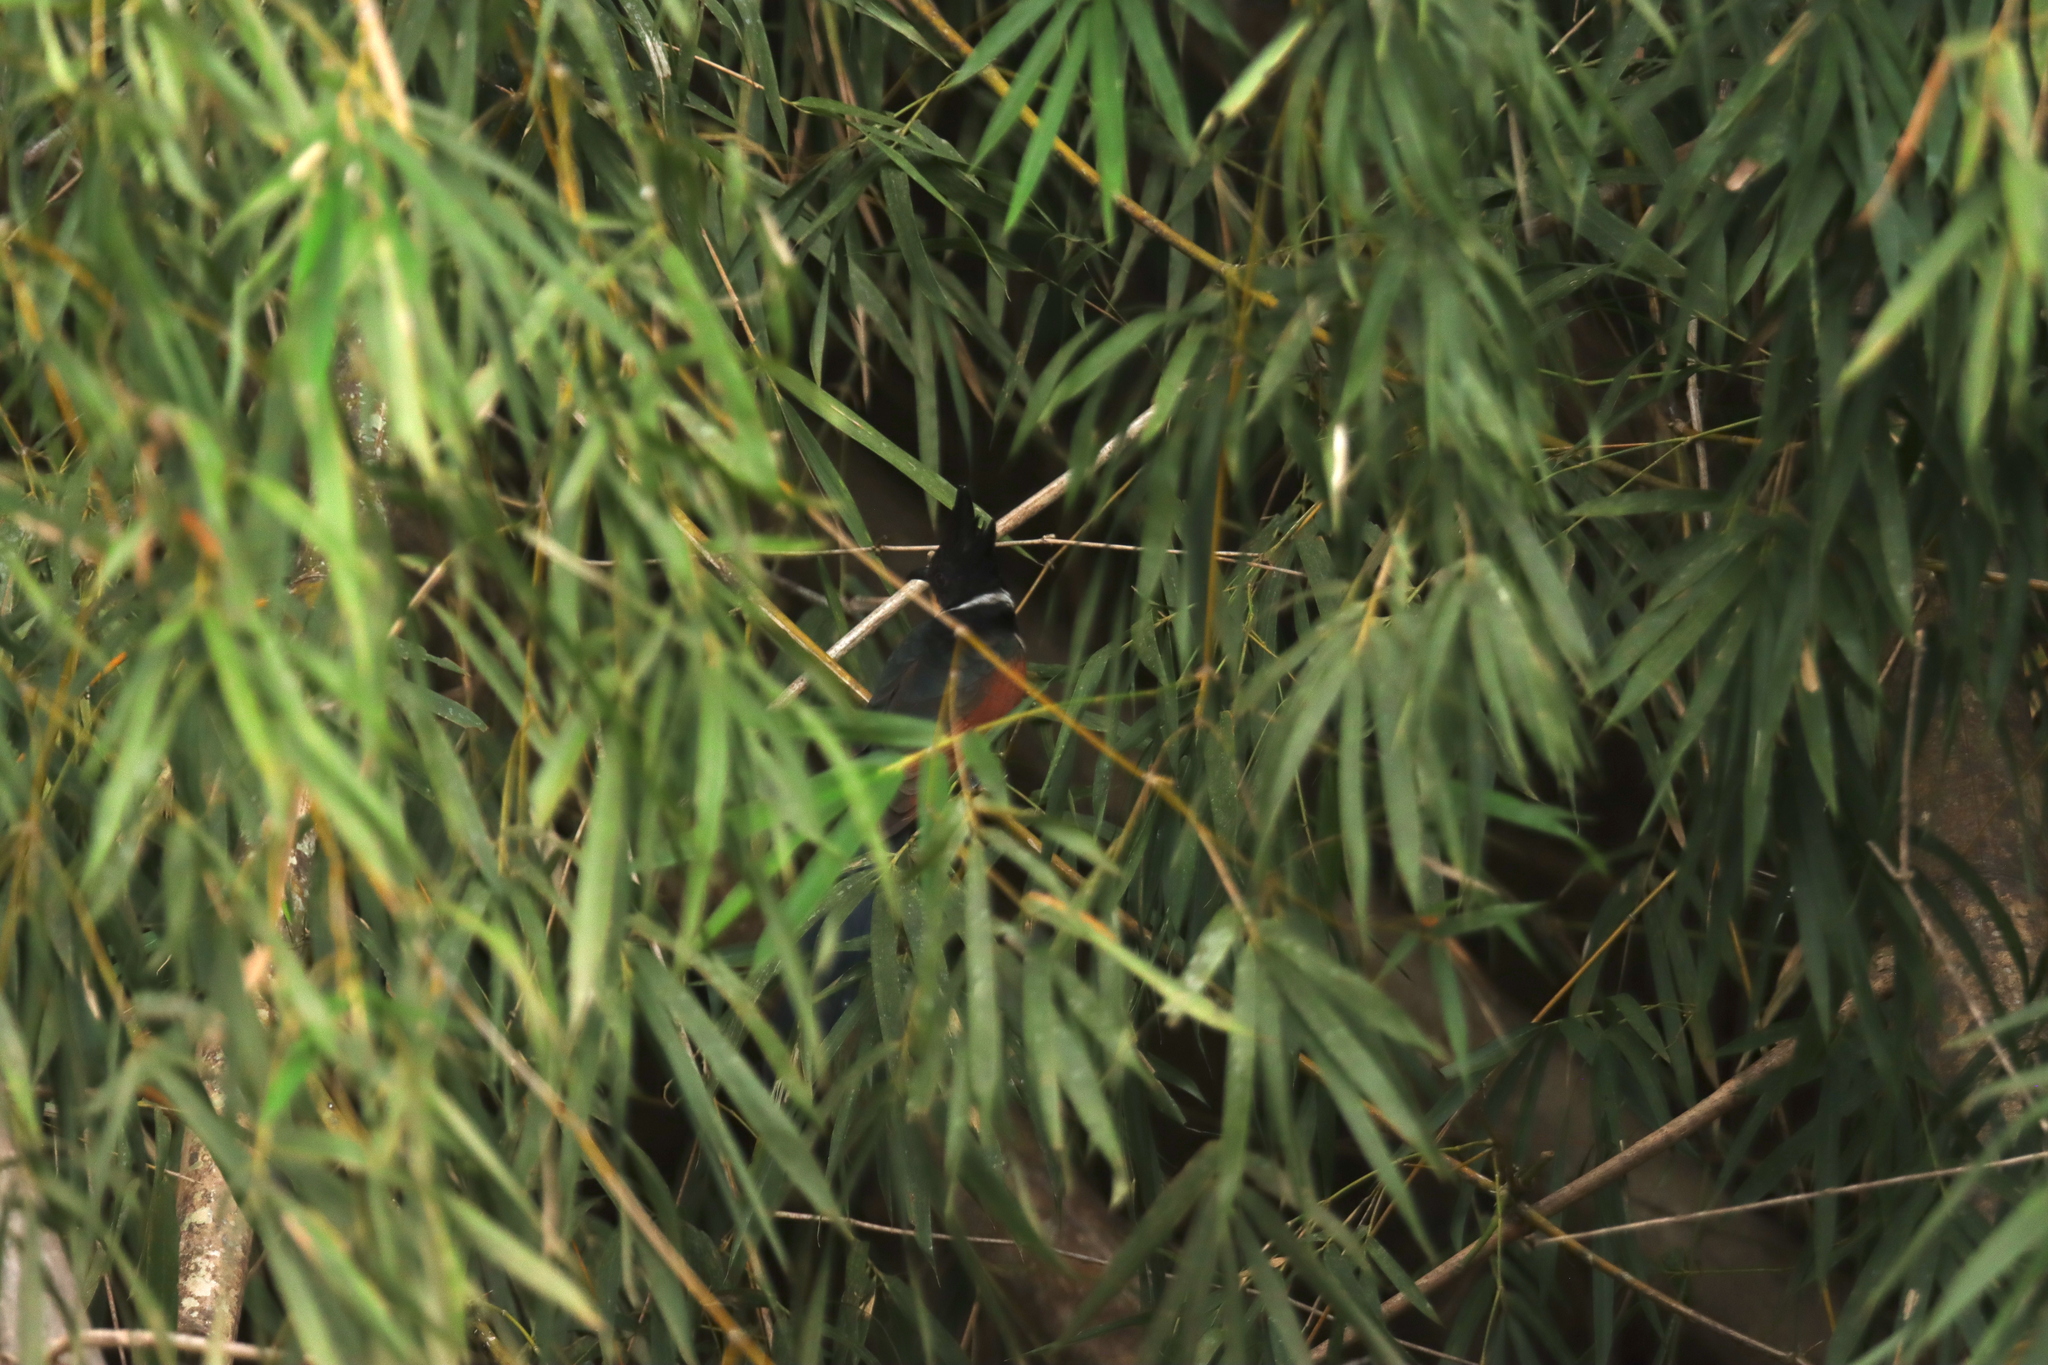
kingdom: Animalia
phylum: Chordata
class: Aves
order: Cuculiformes
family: Cuculidae
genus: Clamator
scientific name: Clamator coromandus
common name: Chestnut-winged cuckoo
